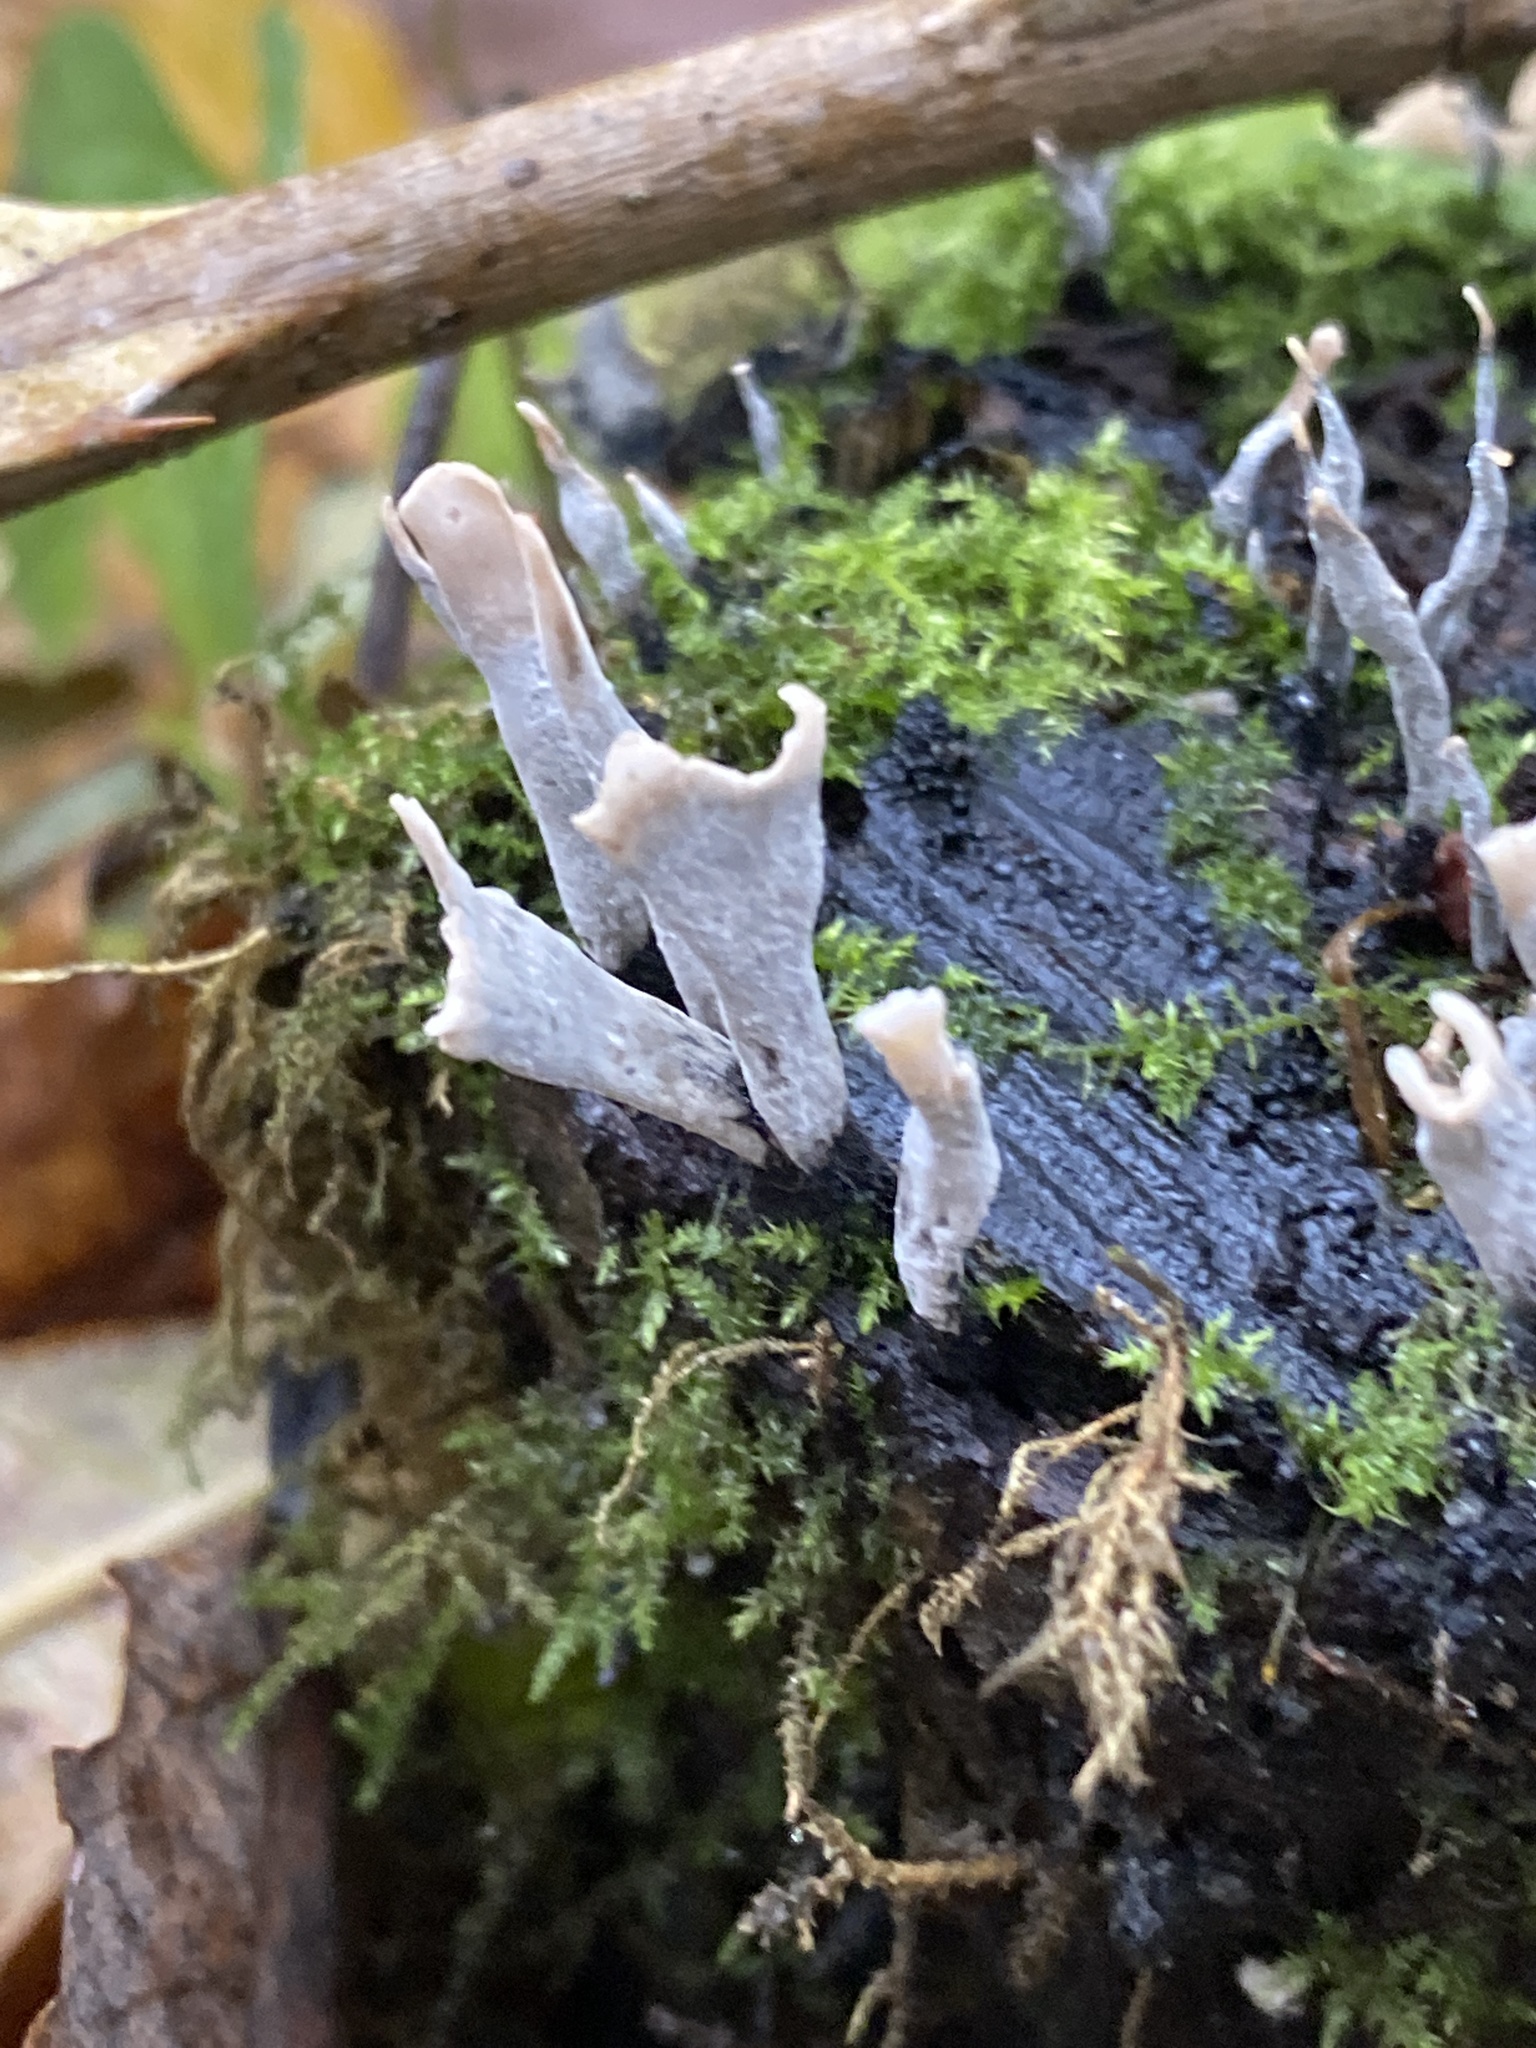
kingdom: Fungi
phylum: Ascomycota
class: Sordariomycetes
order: Xylariales
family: Xylariaceae
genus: Xylaria
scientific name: Xylaria hypoxylon
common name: Candle-snuff fungus
